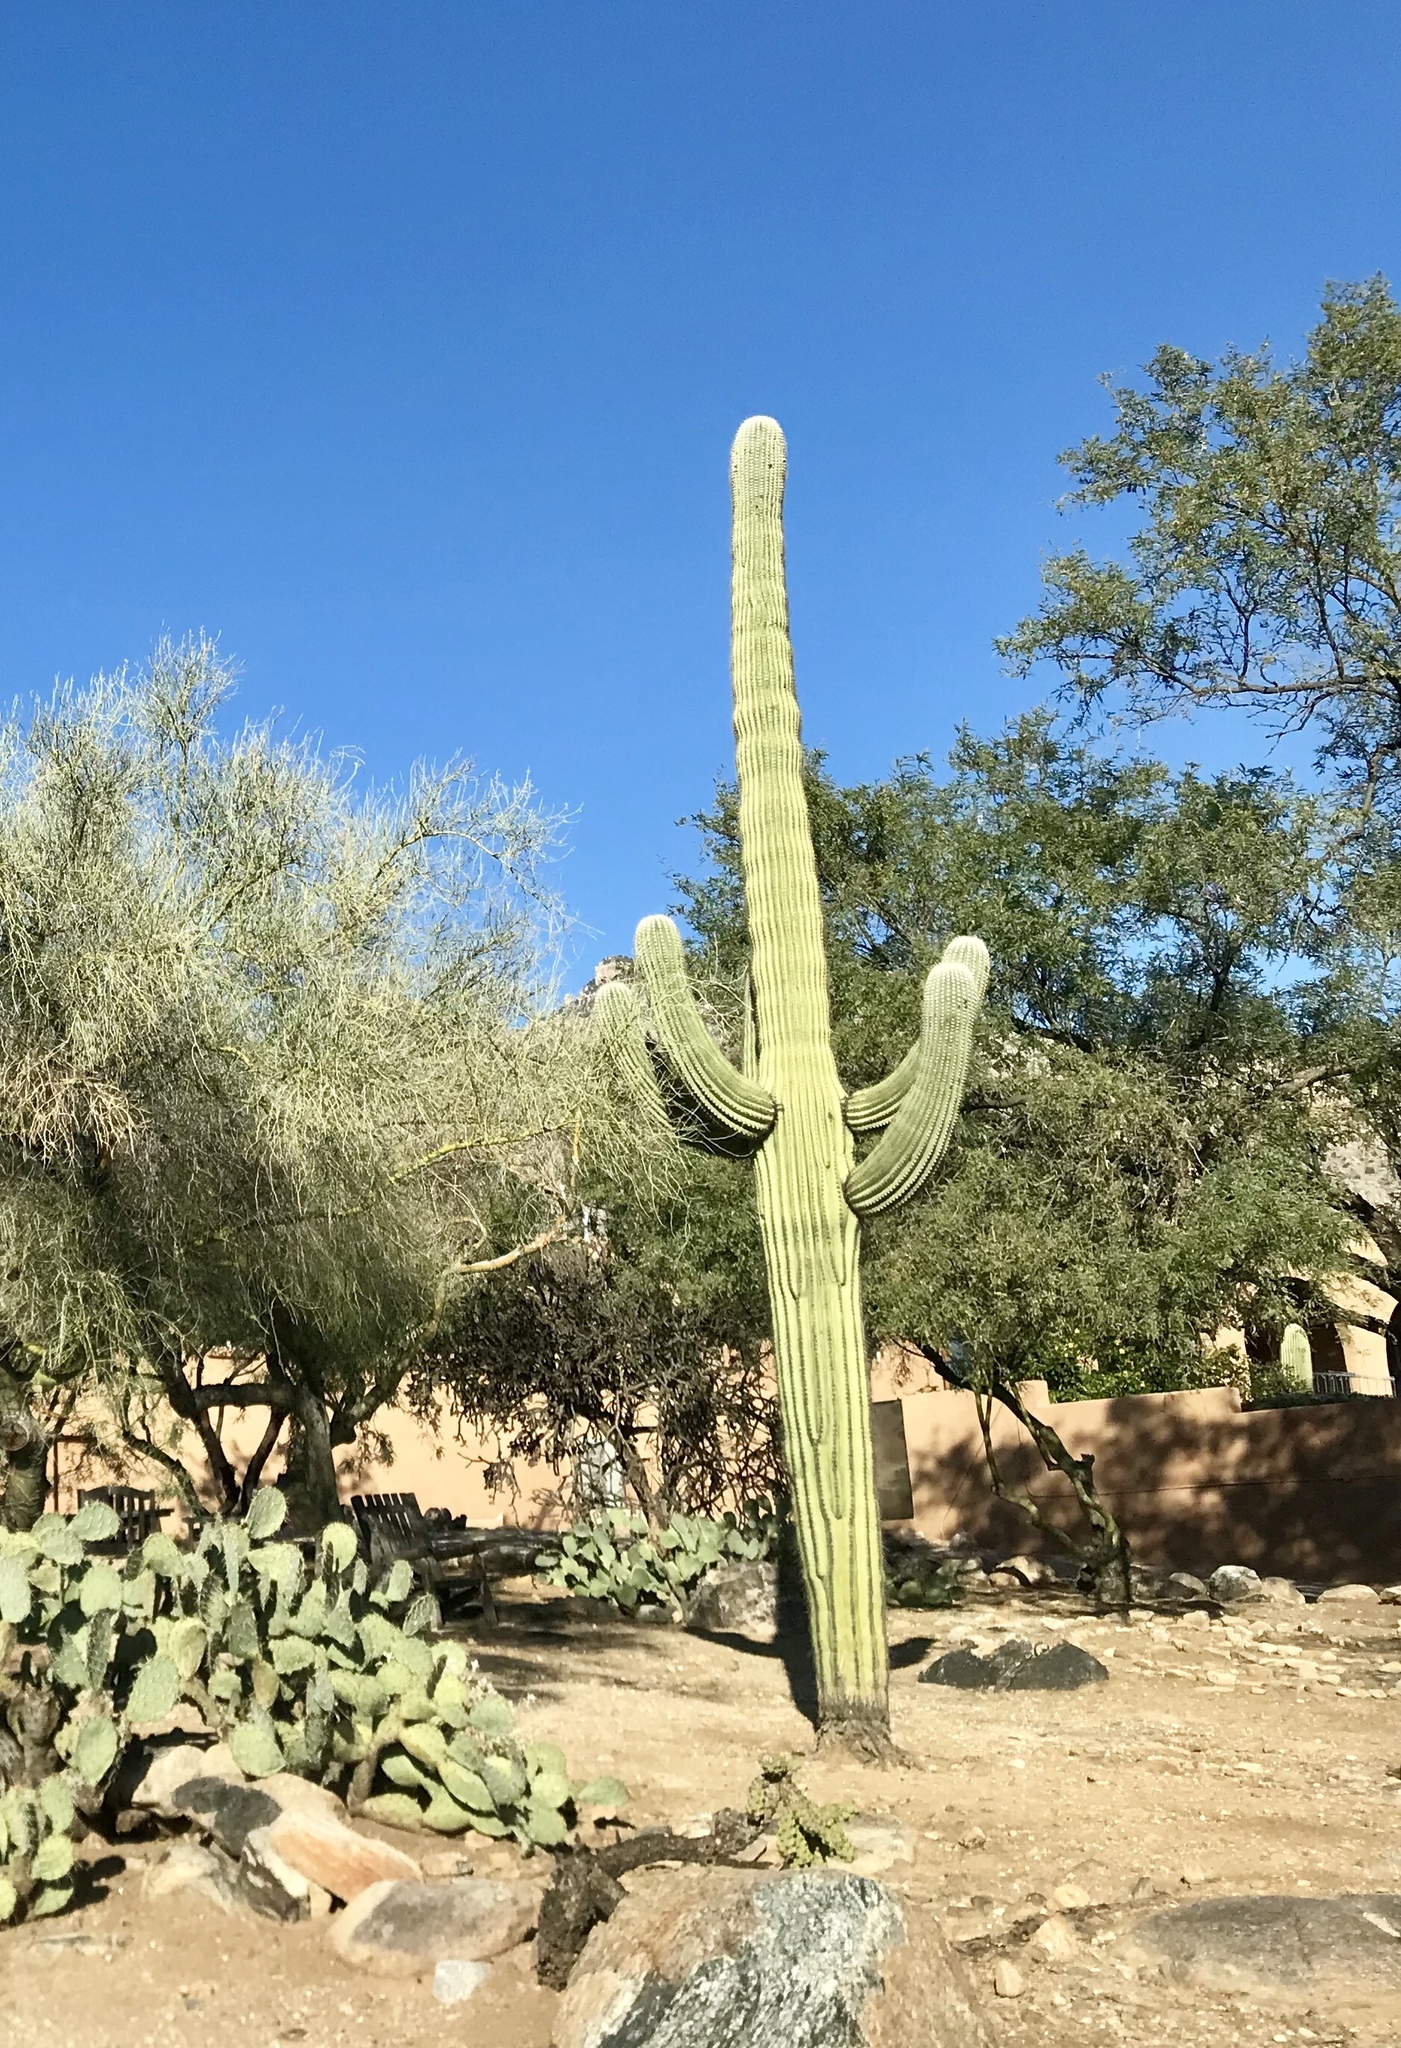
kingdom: Plantae
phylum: Tracheophyta
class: Magnoliopsida
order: Caryophyllales
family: Cactaceae
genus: Carnegiea
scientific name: Carnegiea gigantea
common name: Saguaro
